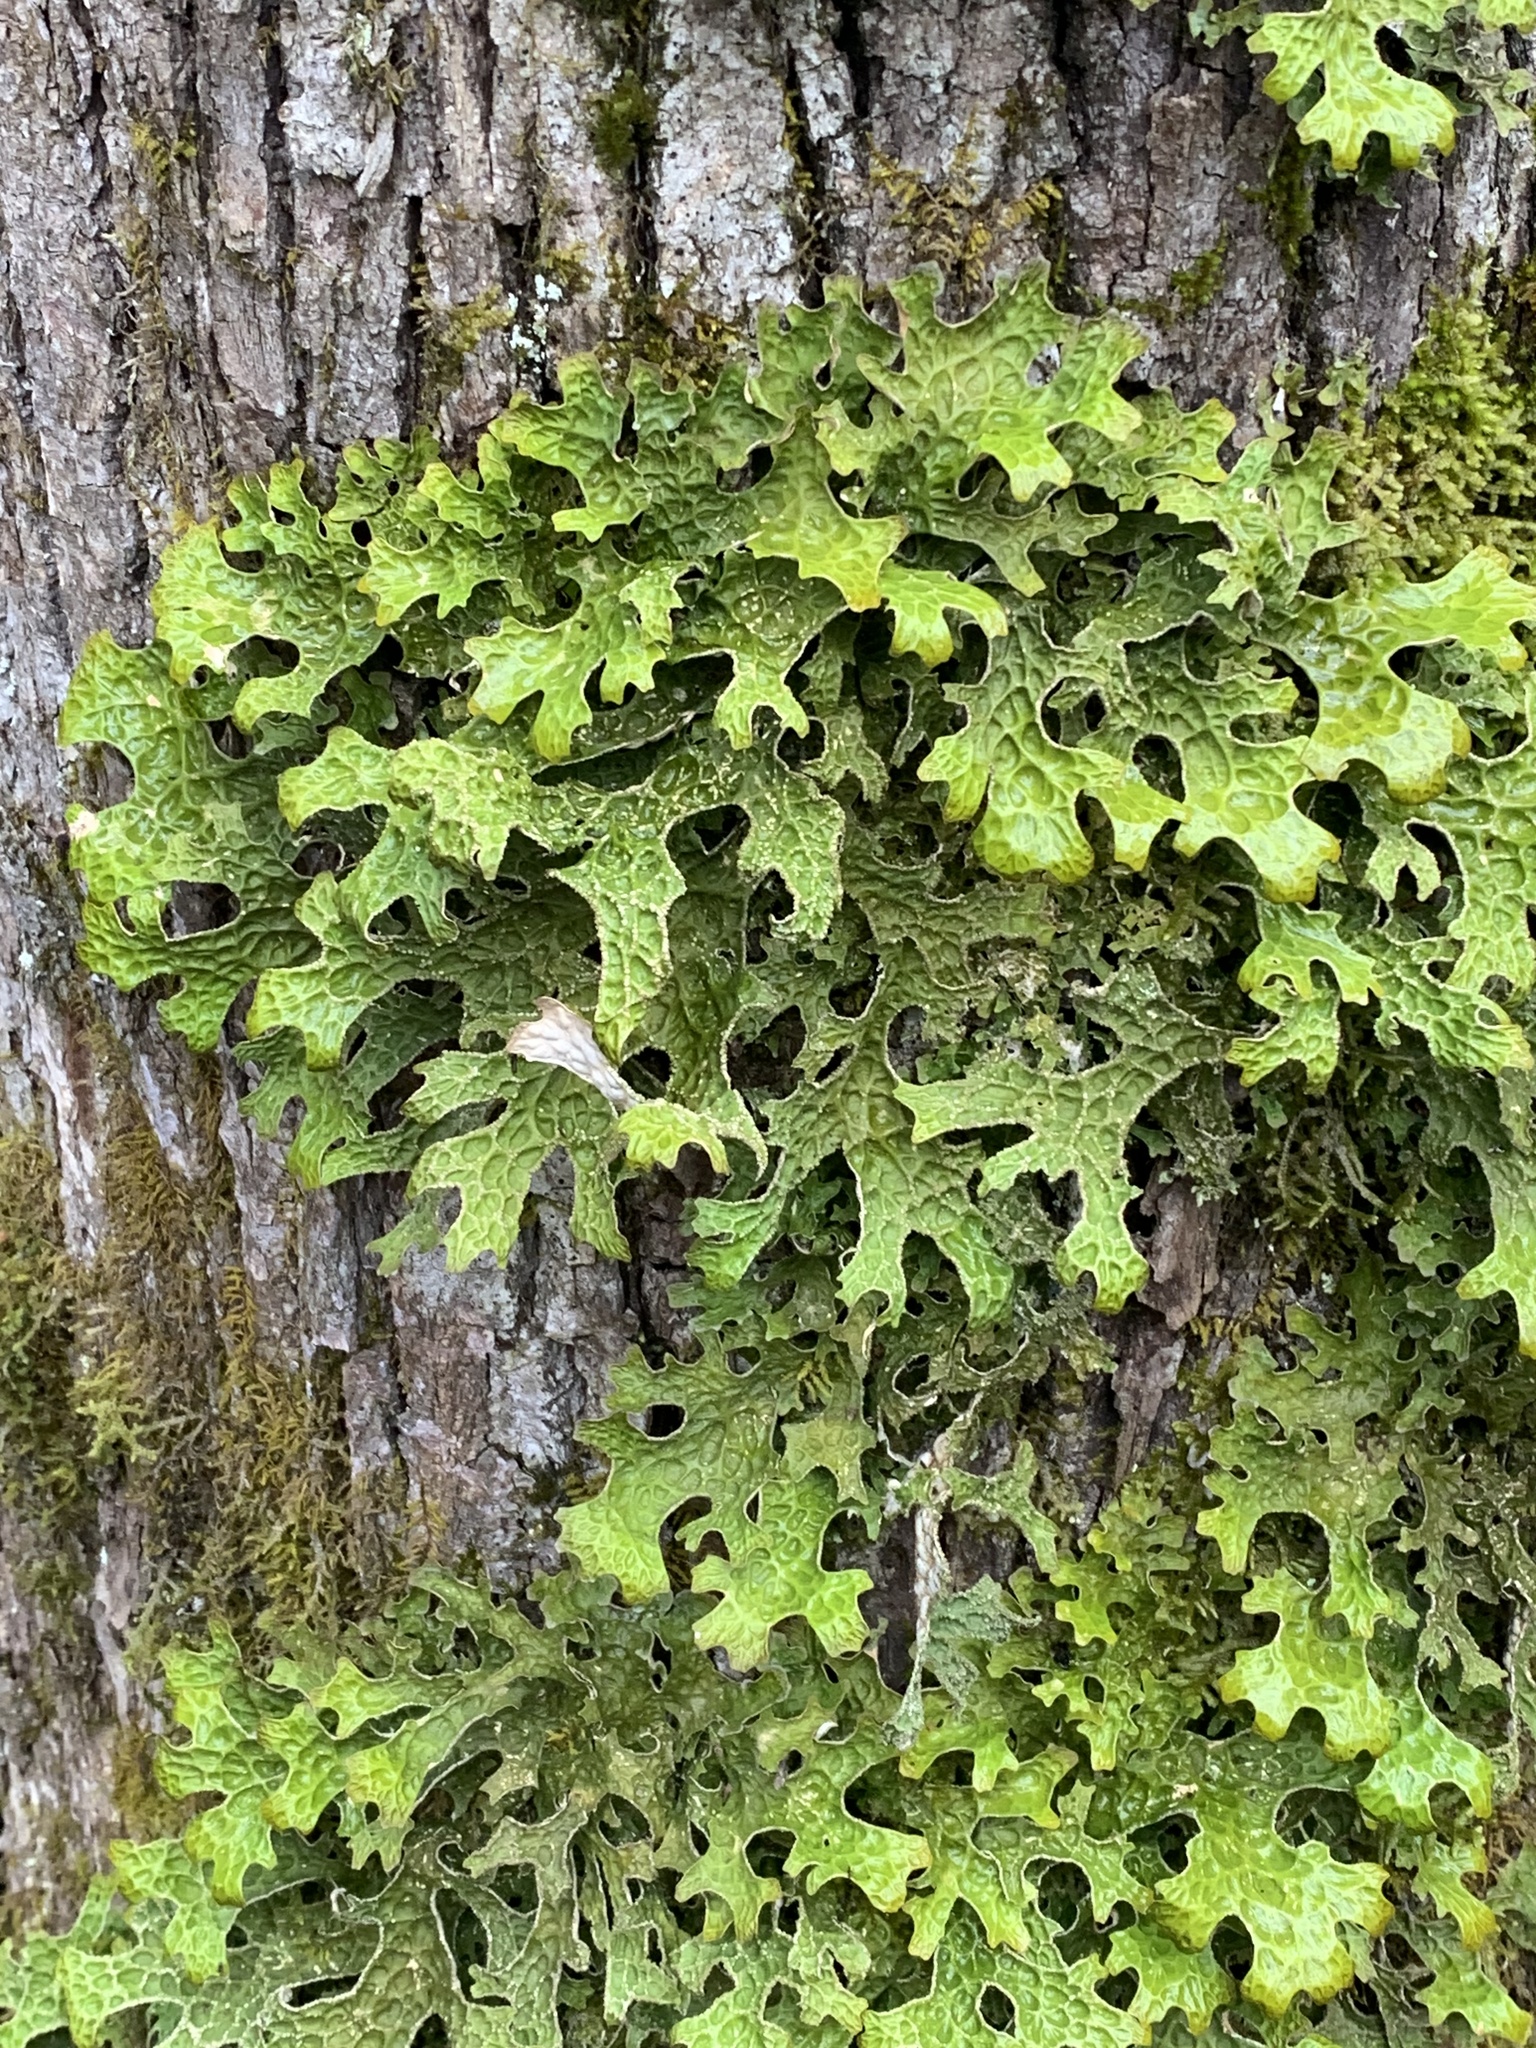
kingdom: Fungi
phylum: Ascomycota
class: Lecanoromycetes
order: Peltigerales
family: Lobariaceae
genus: Lobaria
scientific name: Lobaria pulmonaria
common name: Lungwort
